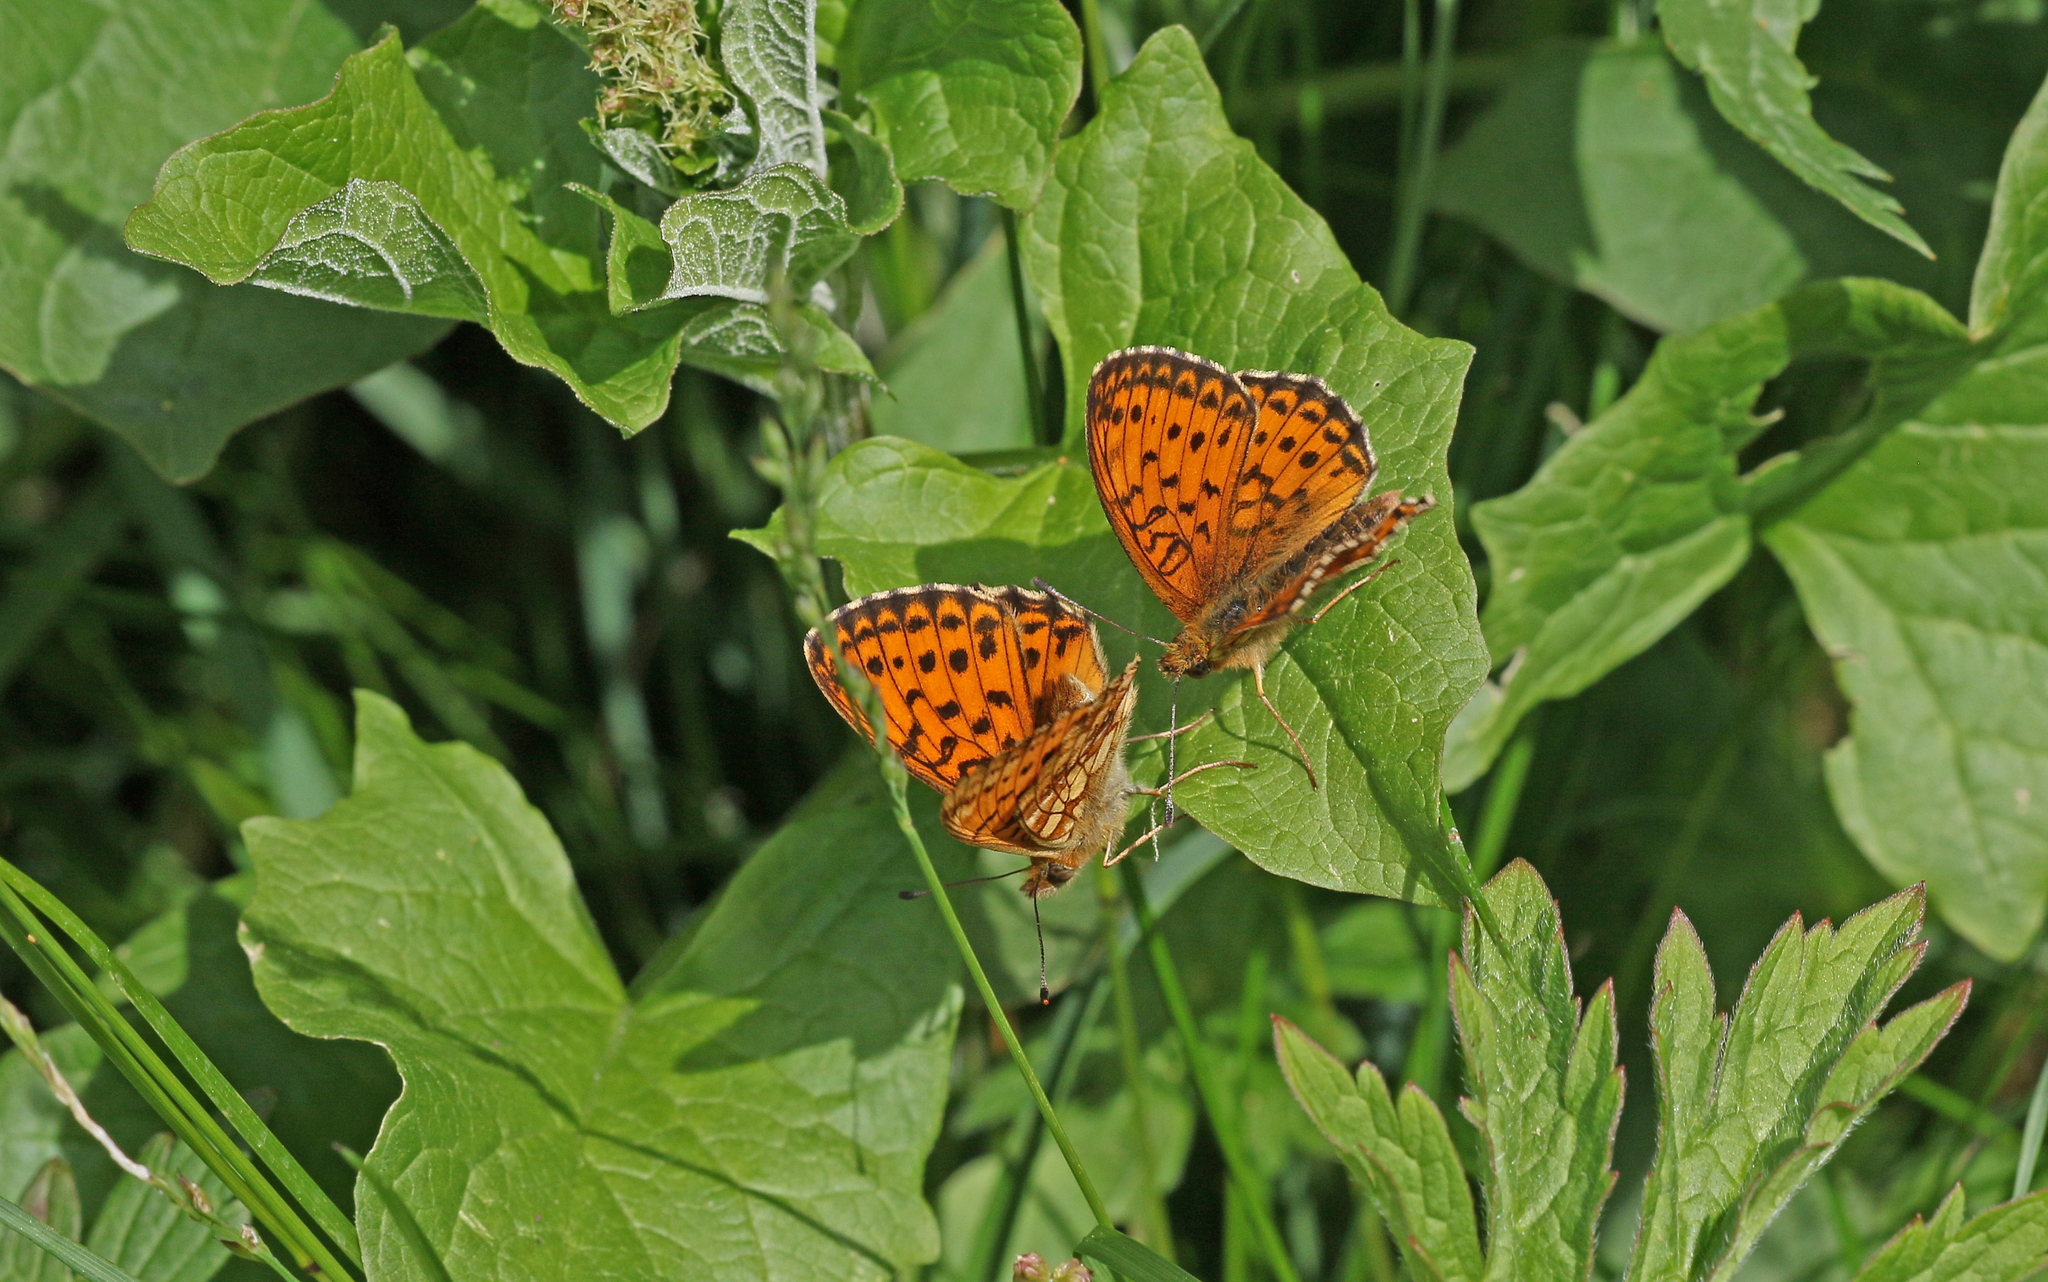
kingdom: Animalia
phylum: Arthropoda
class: Insecta
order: Lepidoptera
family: Nymphalidae
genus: Brenthis
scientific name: Brenthis ino
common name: Lesser marbled fritillary
